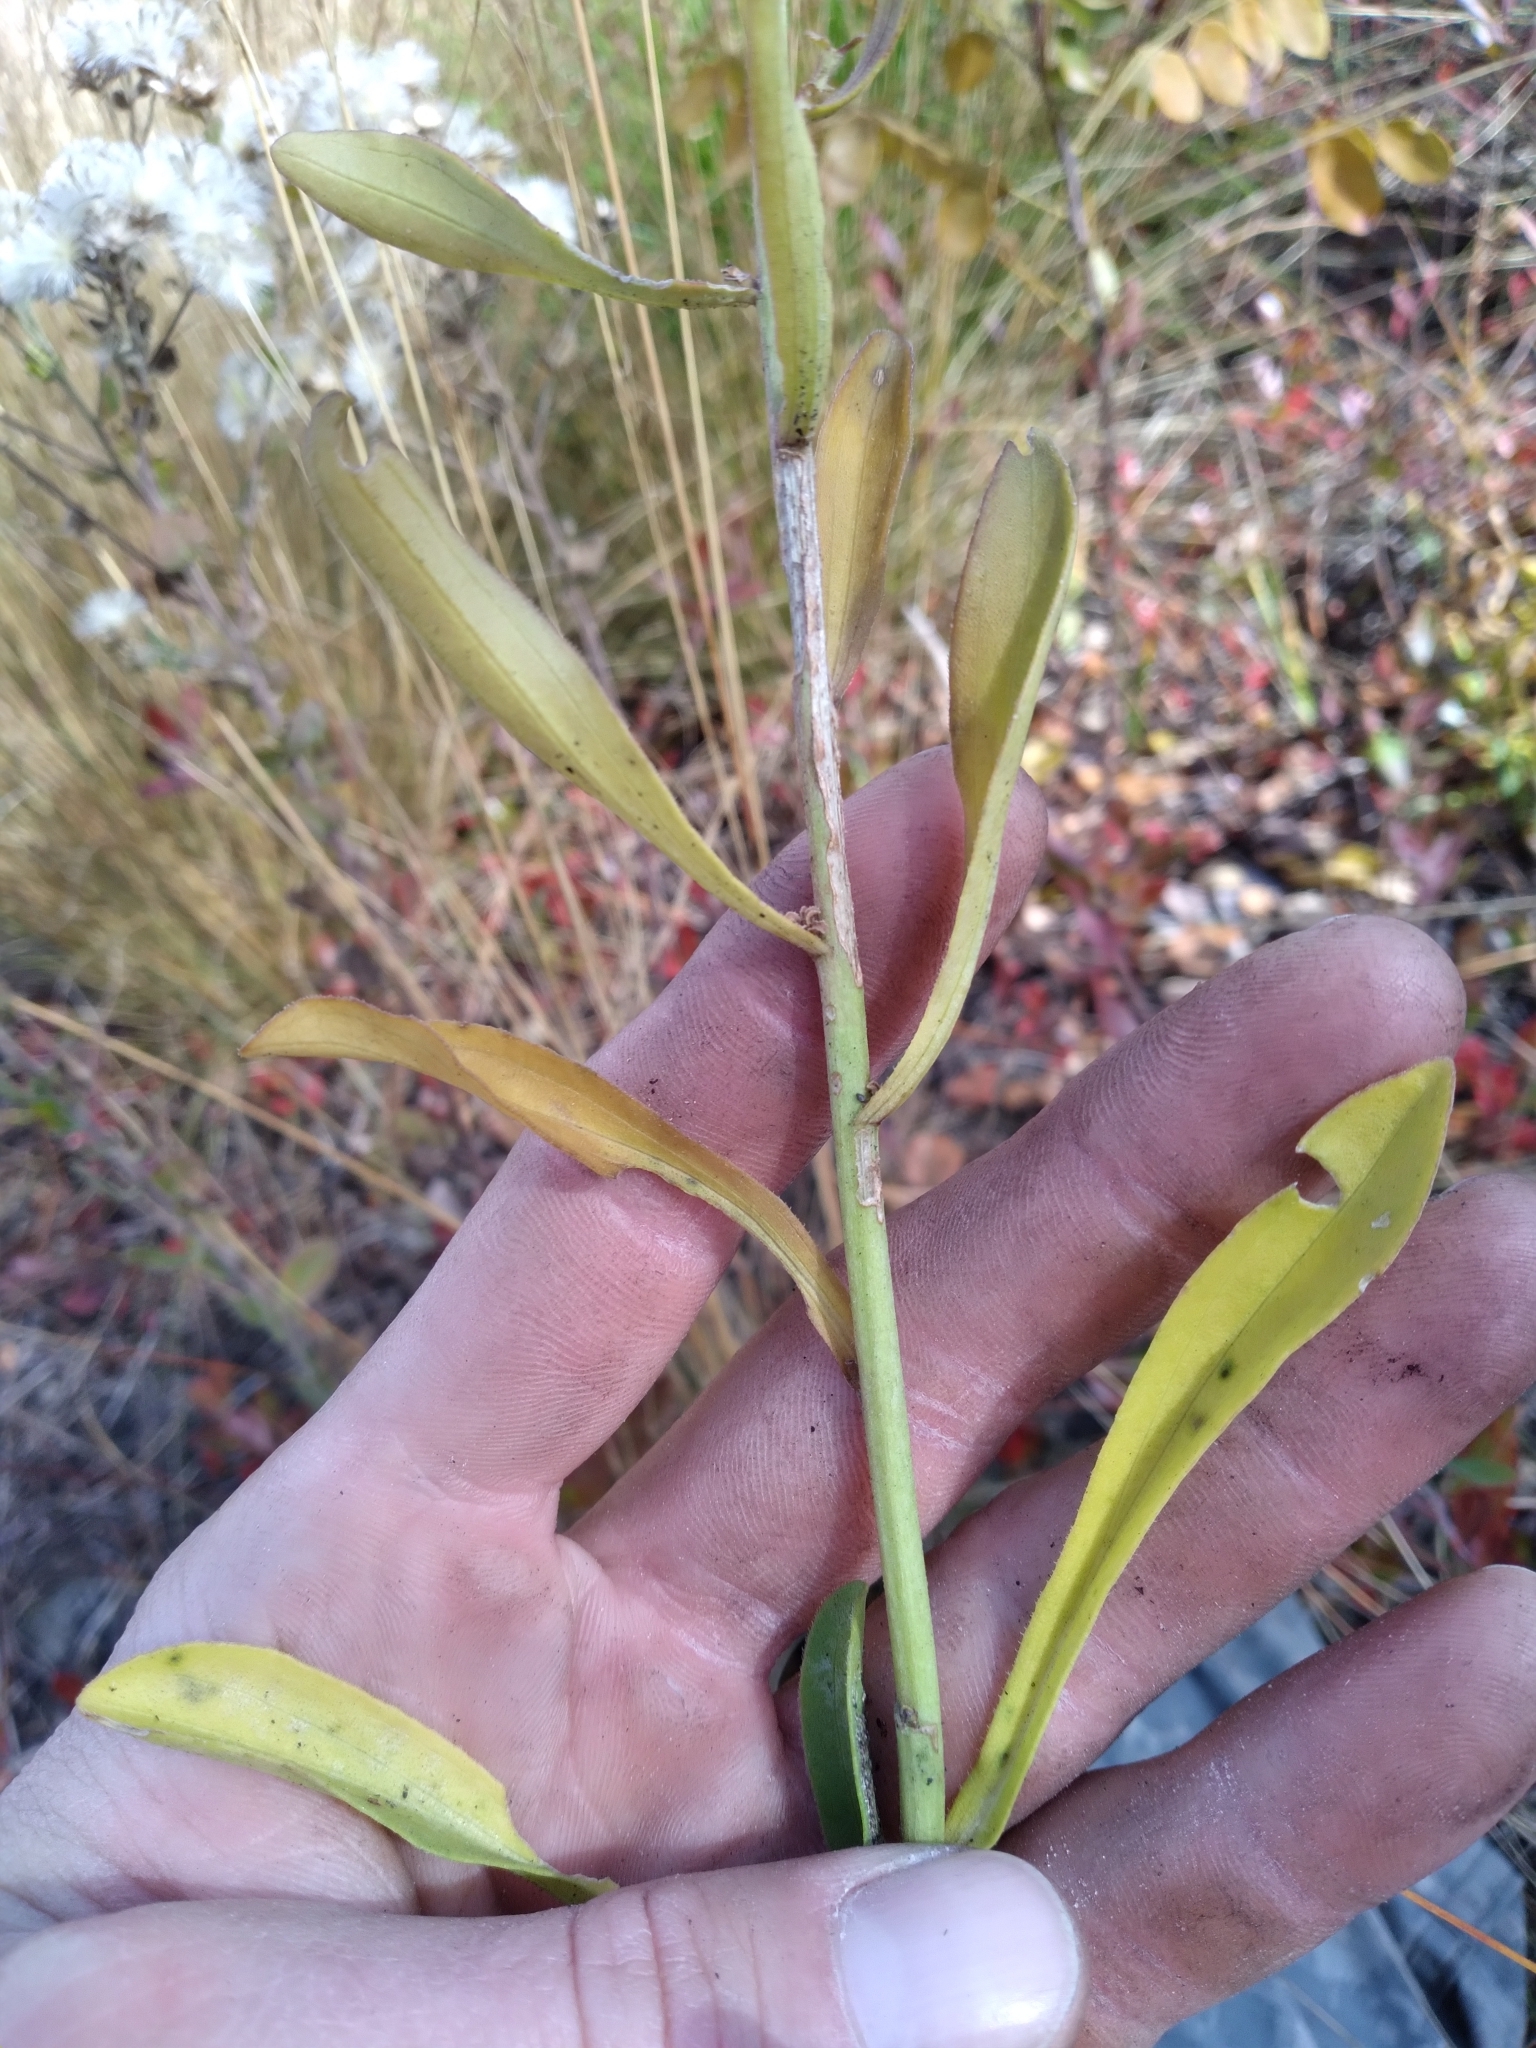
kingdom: Plantae
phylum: Tracheophyta
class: Magnoliopsida
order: Asterales
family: Asteraceae
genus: Carphephorus
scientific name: Carphephorus bellidifolius
